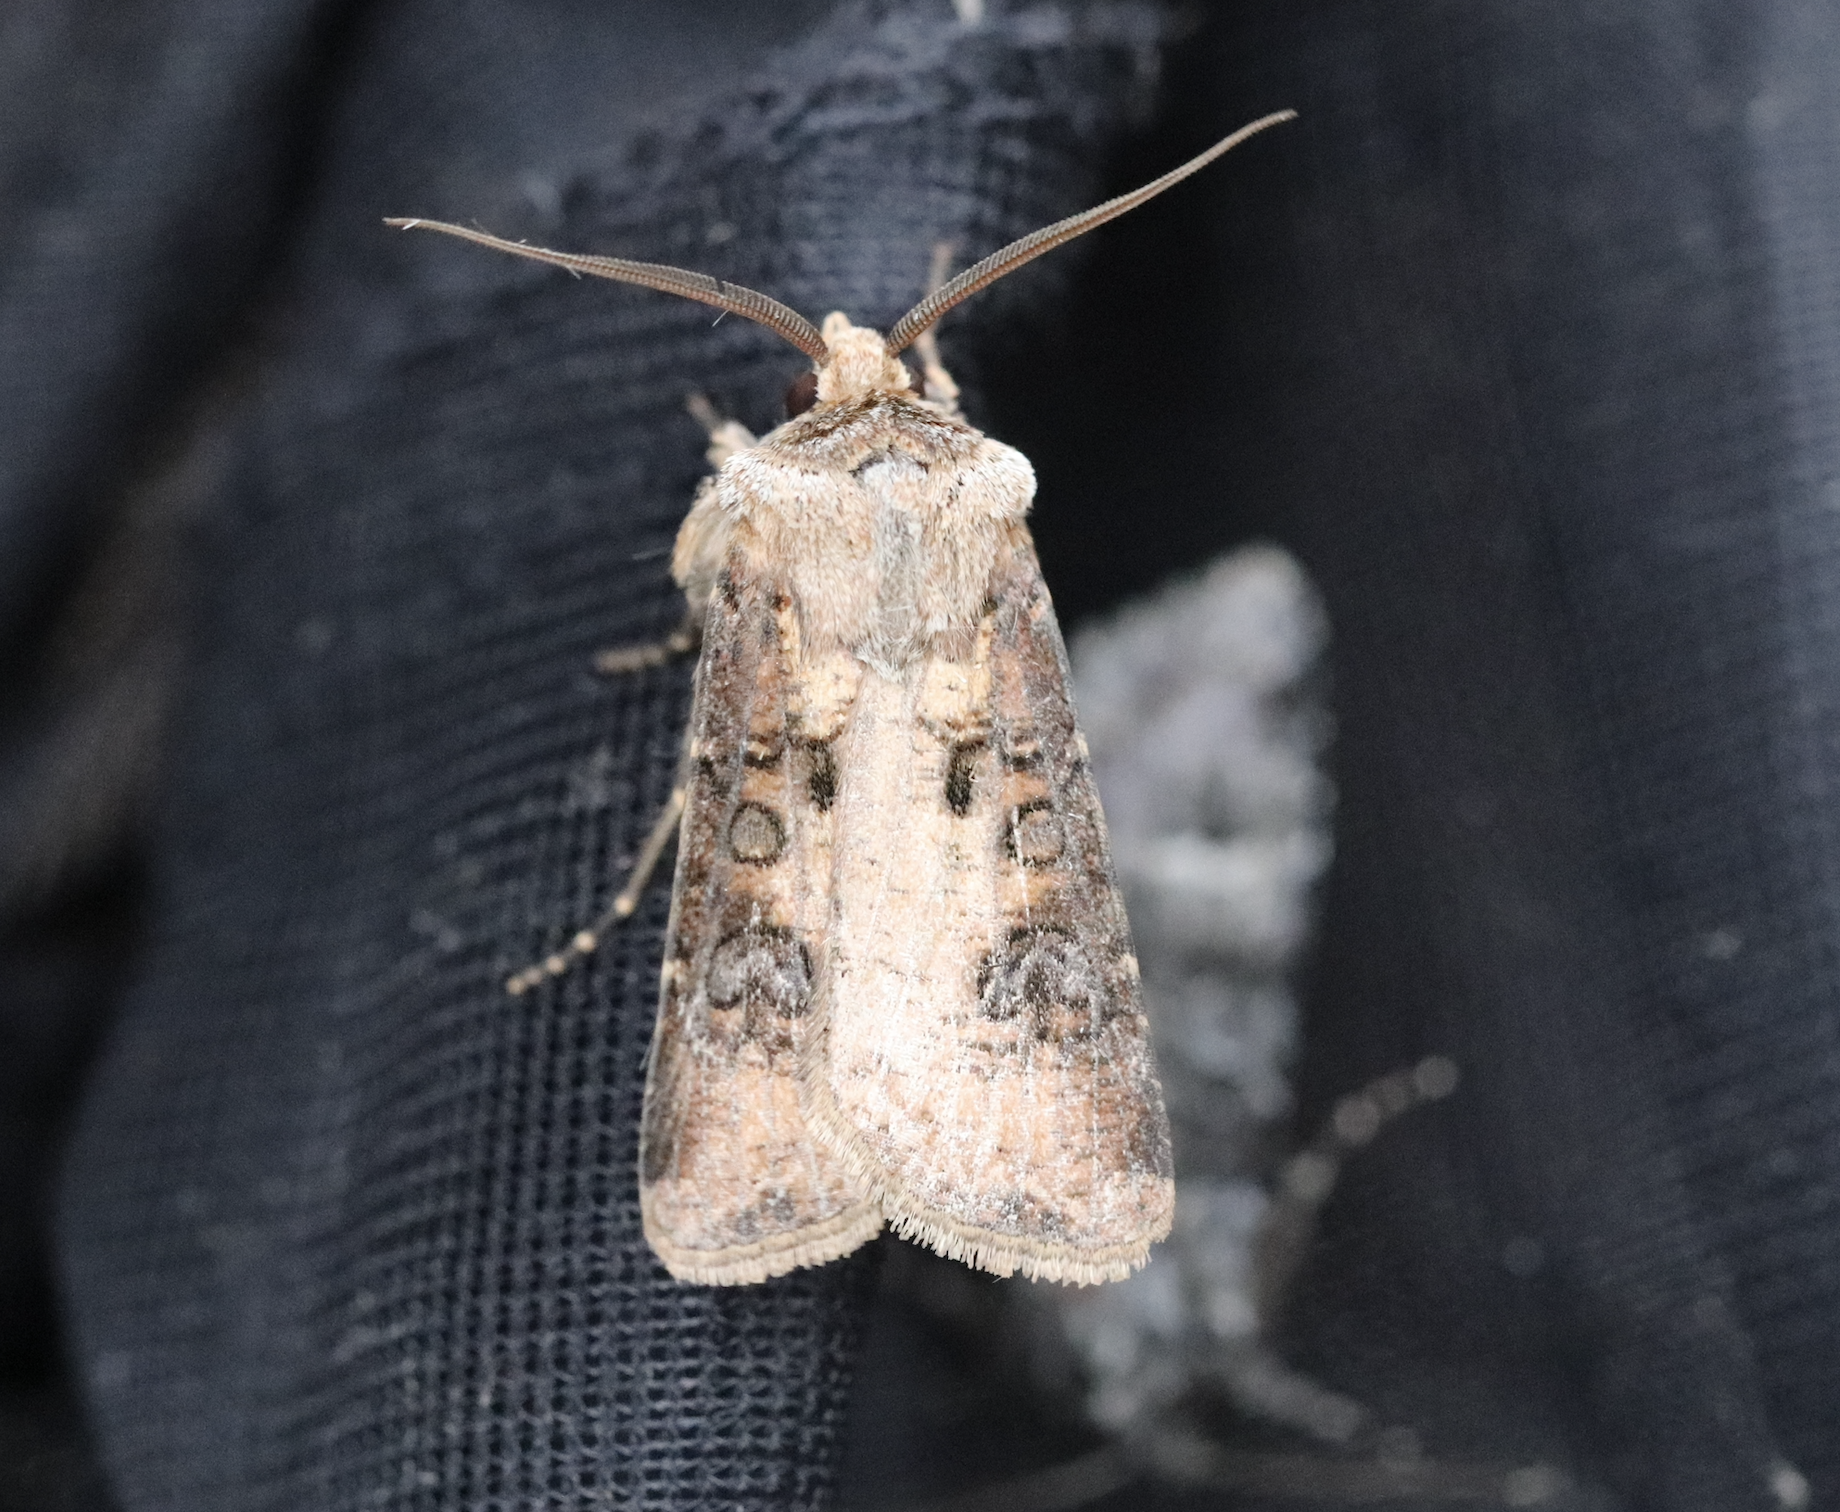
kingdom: Animalia
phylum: Arthropoda
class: Insecta
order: Lepidoptera
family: Noctuidae
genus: Agrotis
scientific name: Agrotis clavis
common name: Heart and club
